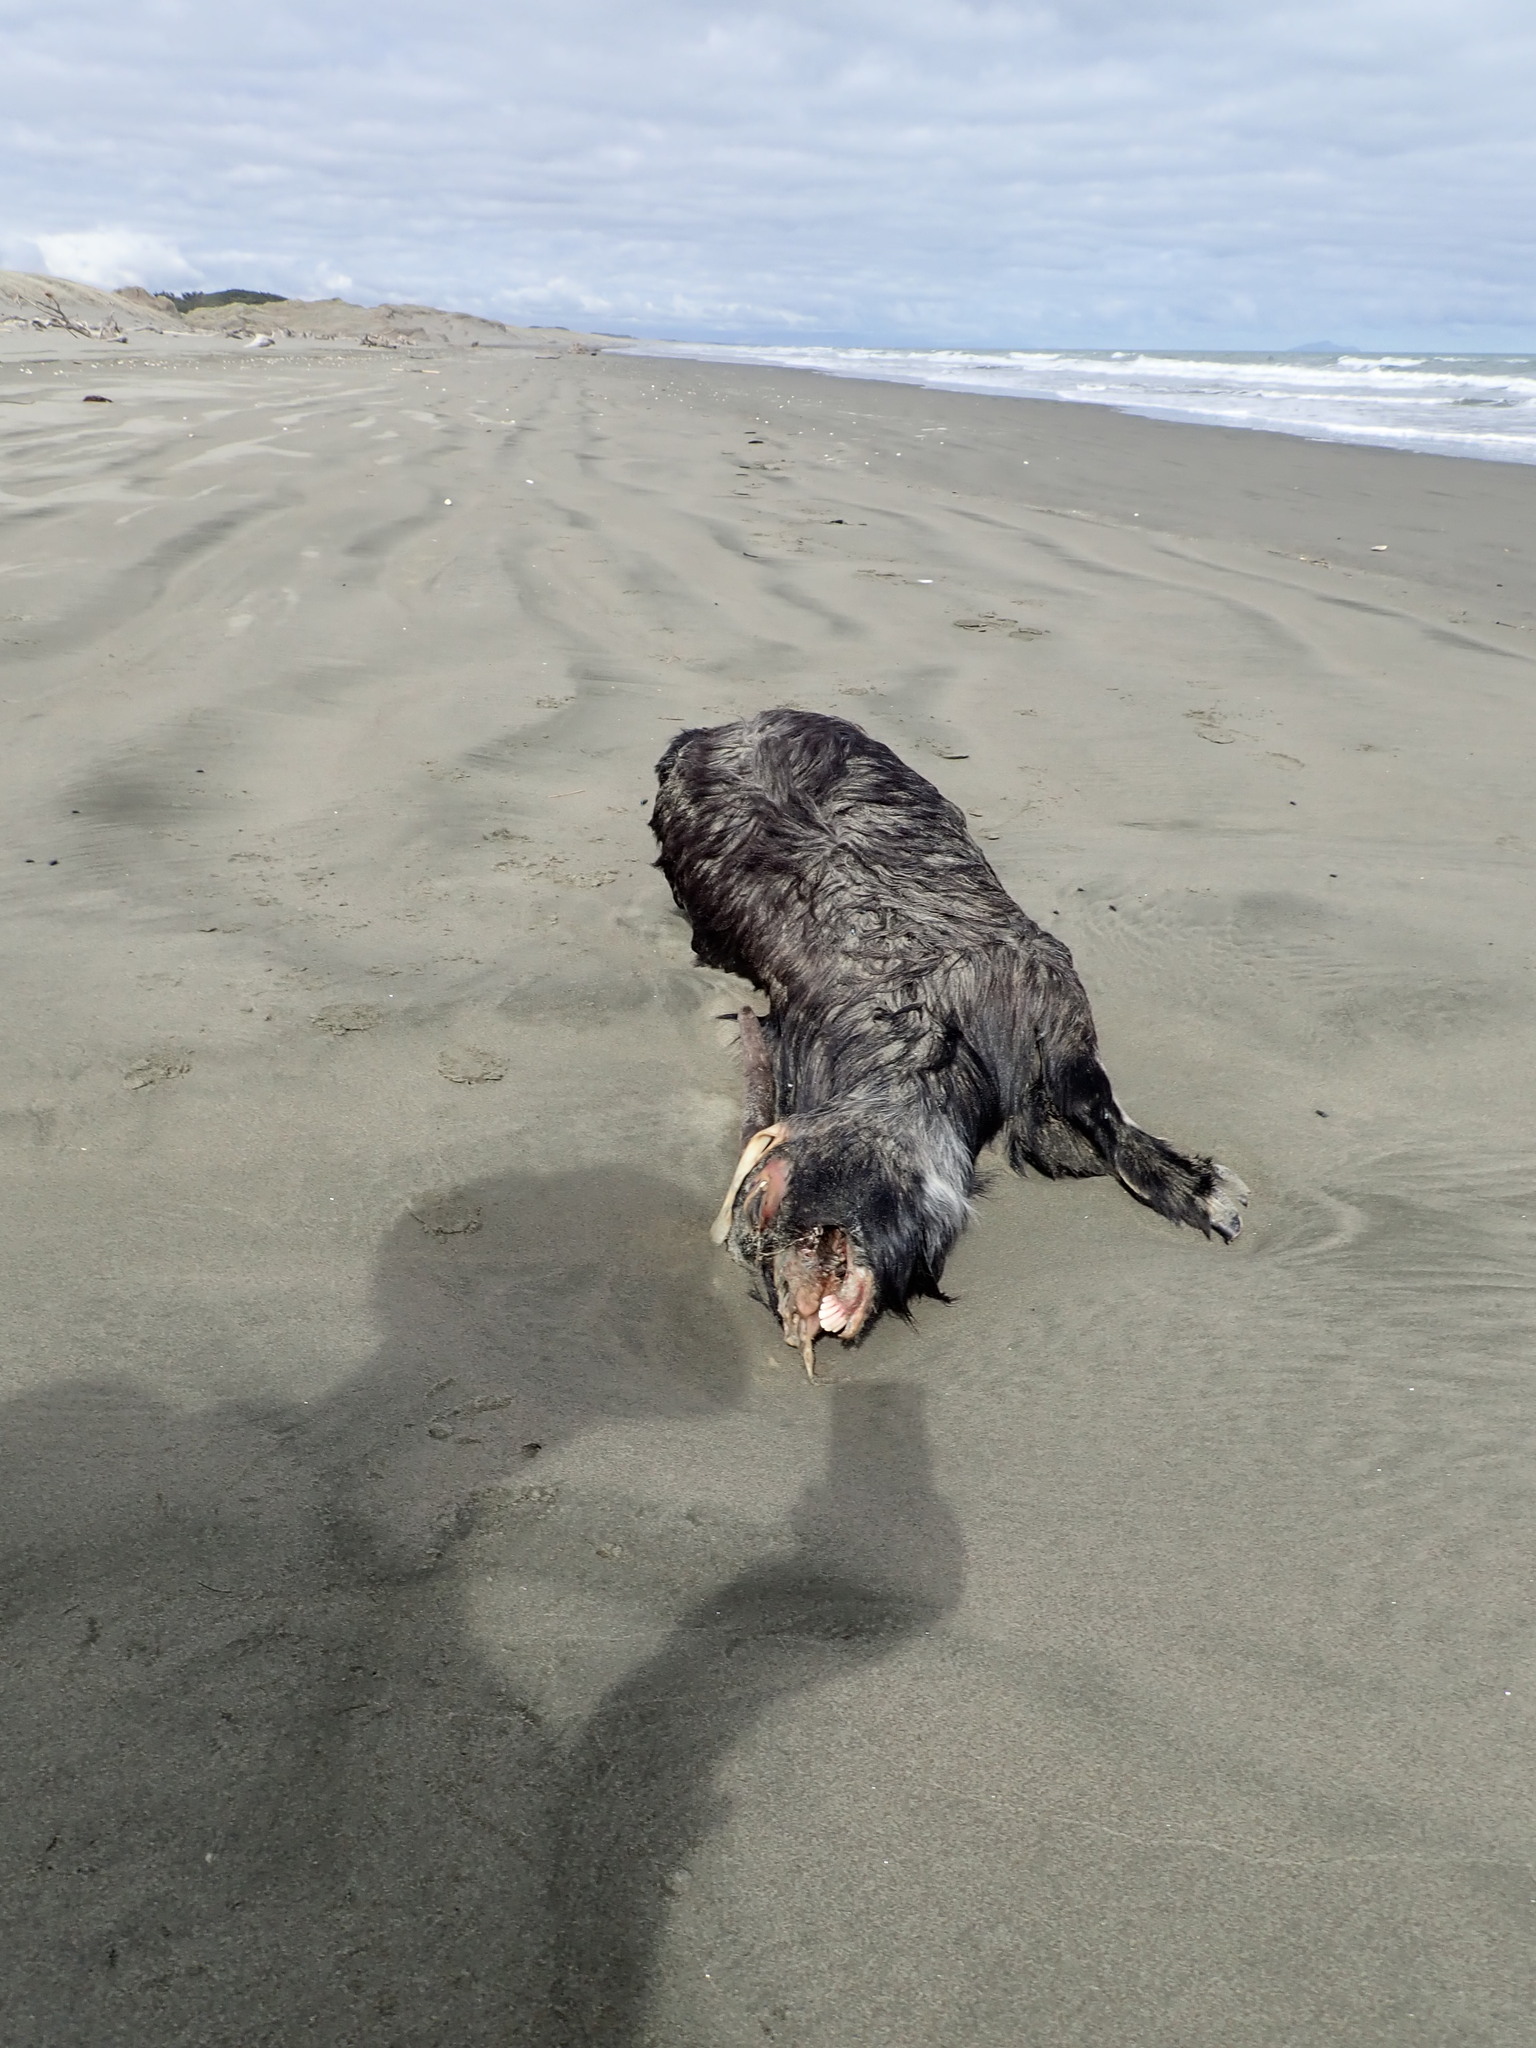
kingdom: Animalia
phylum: Chordata
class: Mammalia
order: Artiodactyla
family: Bovidae
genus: Capra
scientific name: Capra hircus
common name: Domestic goat
